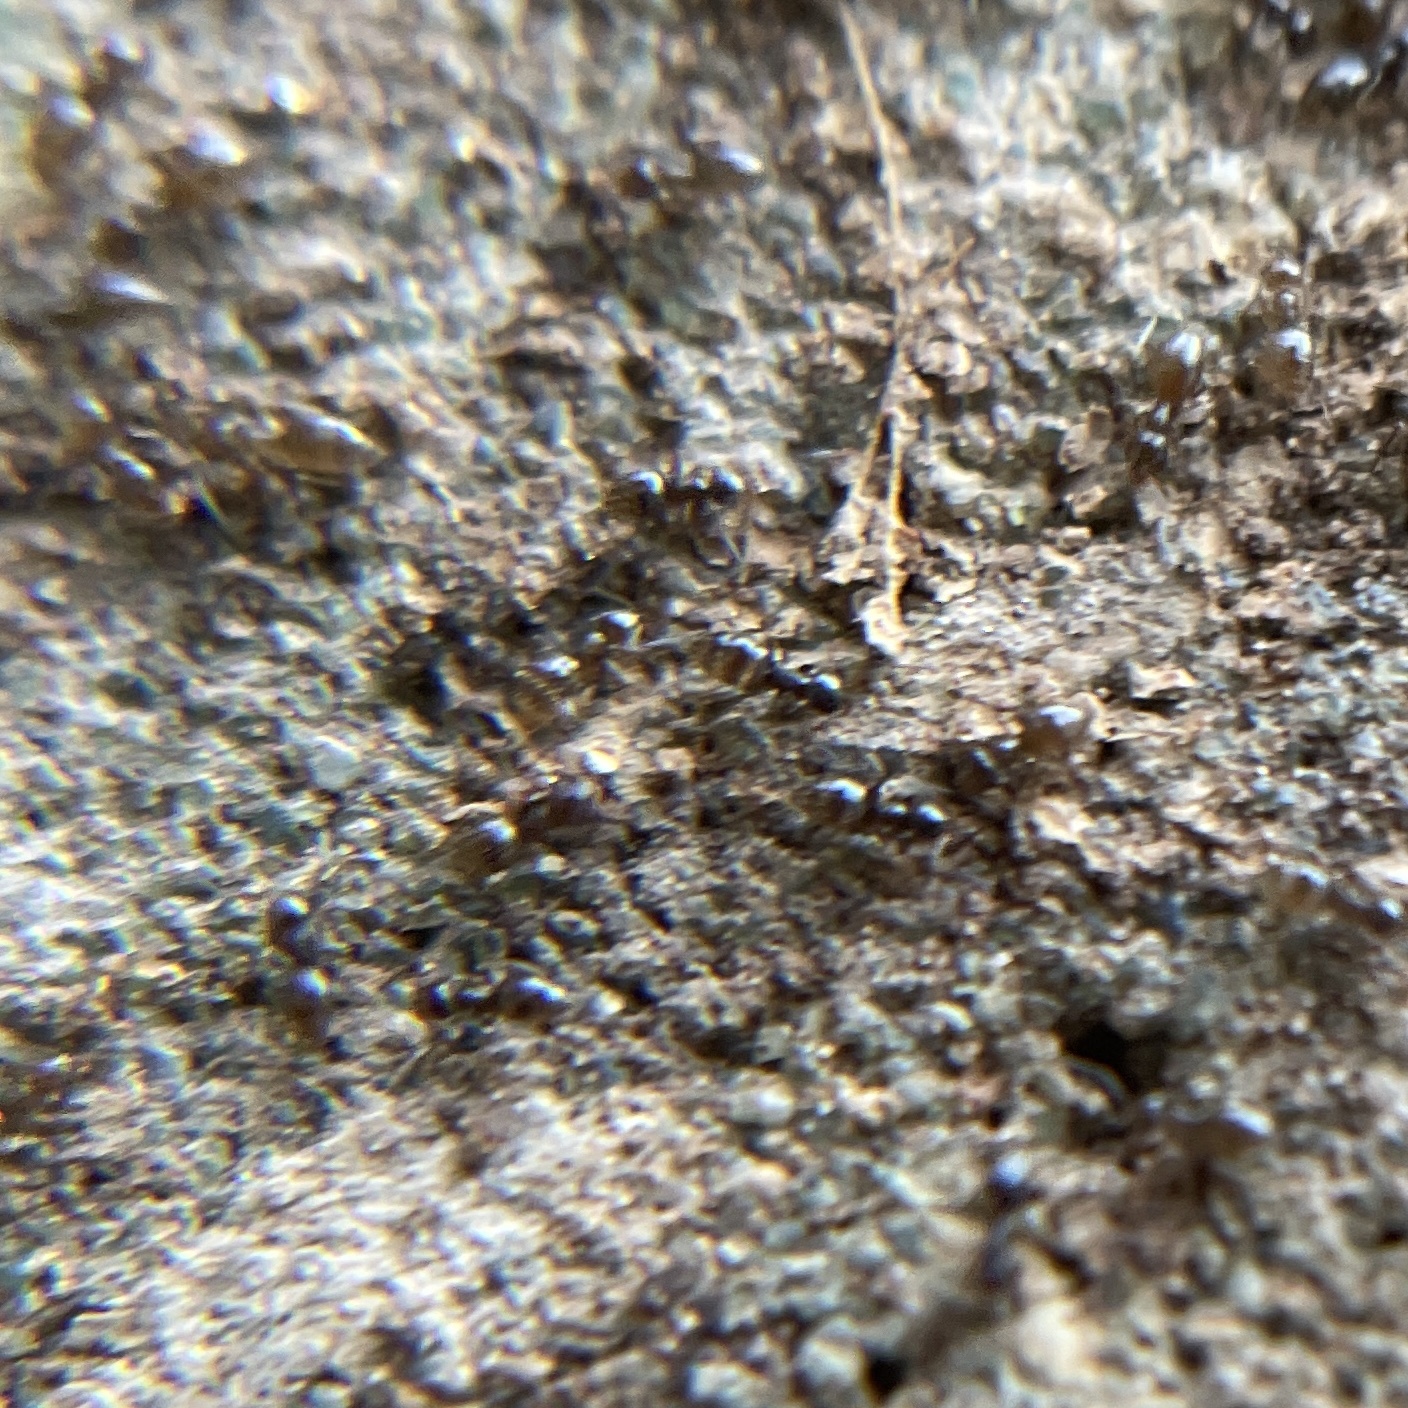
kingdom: Animalia
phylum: Arthropoda
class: Insecta
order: Hymenoptera
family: Formicidae
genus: Brachymyrmex
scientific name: Brachymyrmex patagonicus
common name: Dark rover ant
